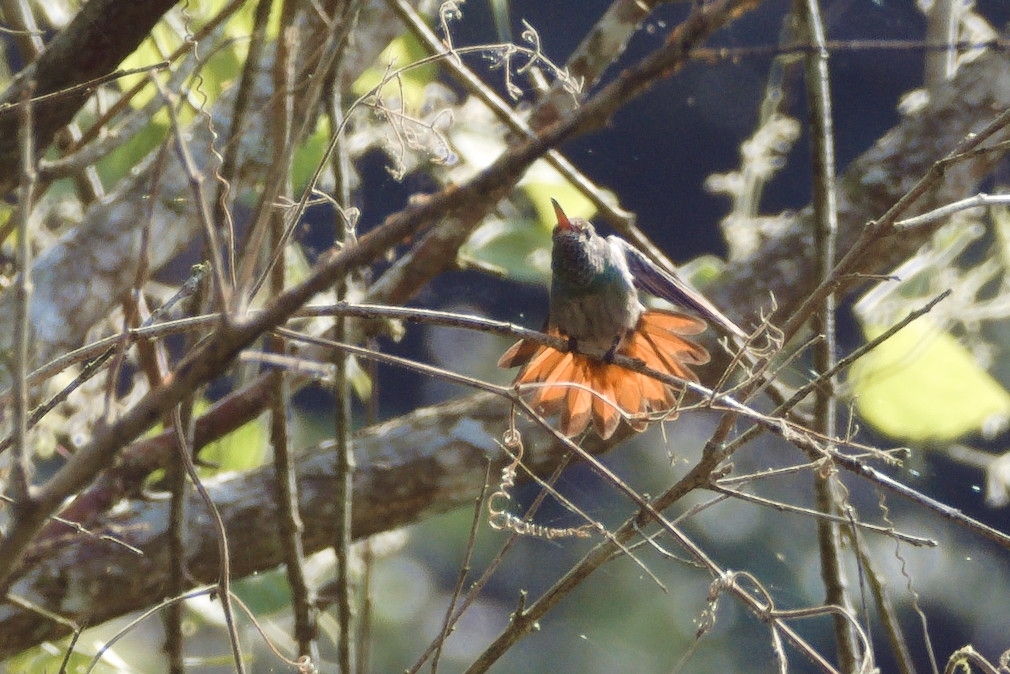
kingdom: Animalia
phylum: Chordata
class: Aves
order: Apodiformes
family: Trochilidae
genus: Amazilia
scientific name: Amazilia tzacatl
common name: Rufous-tailed hummingbird
